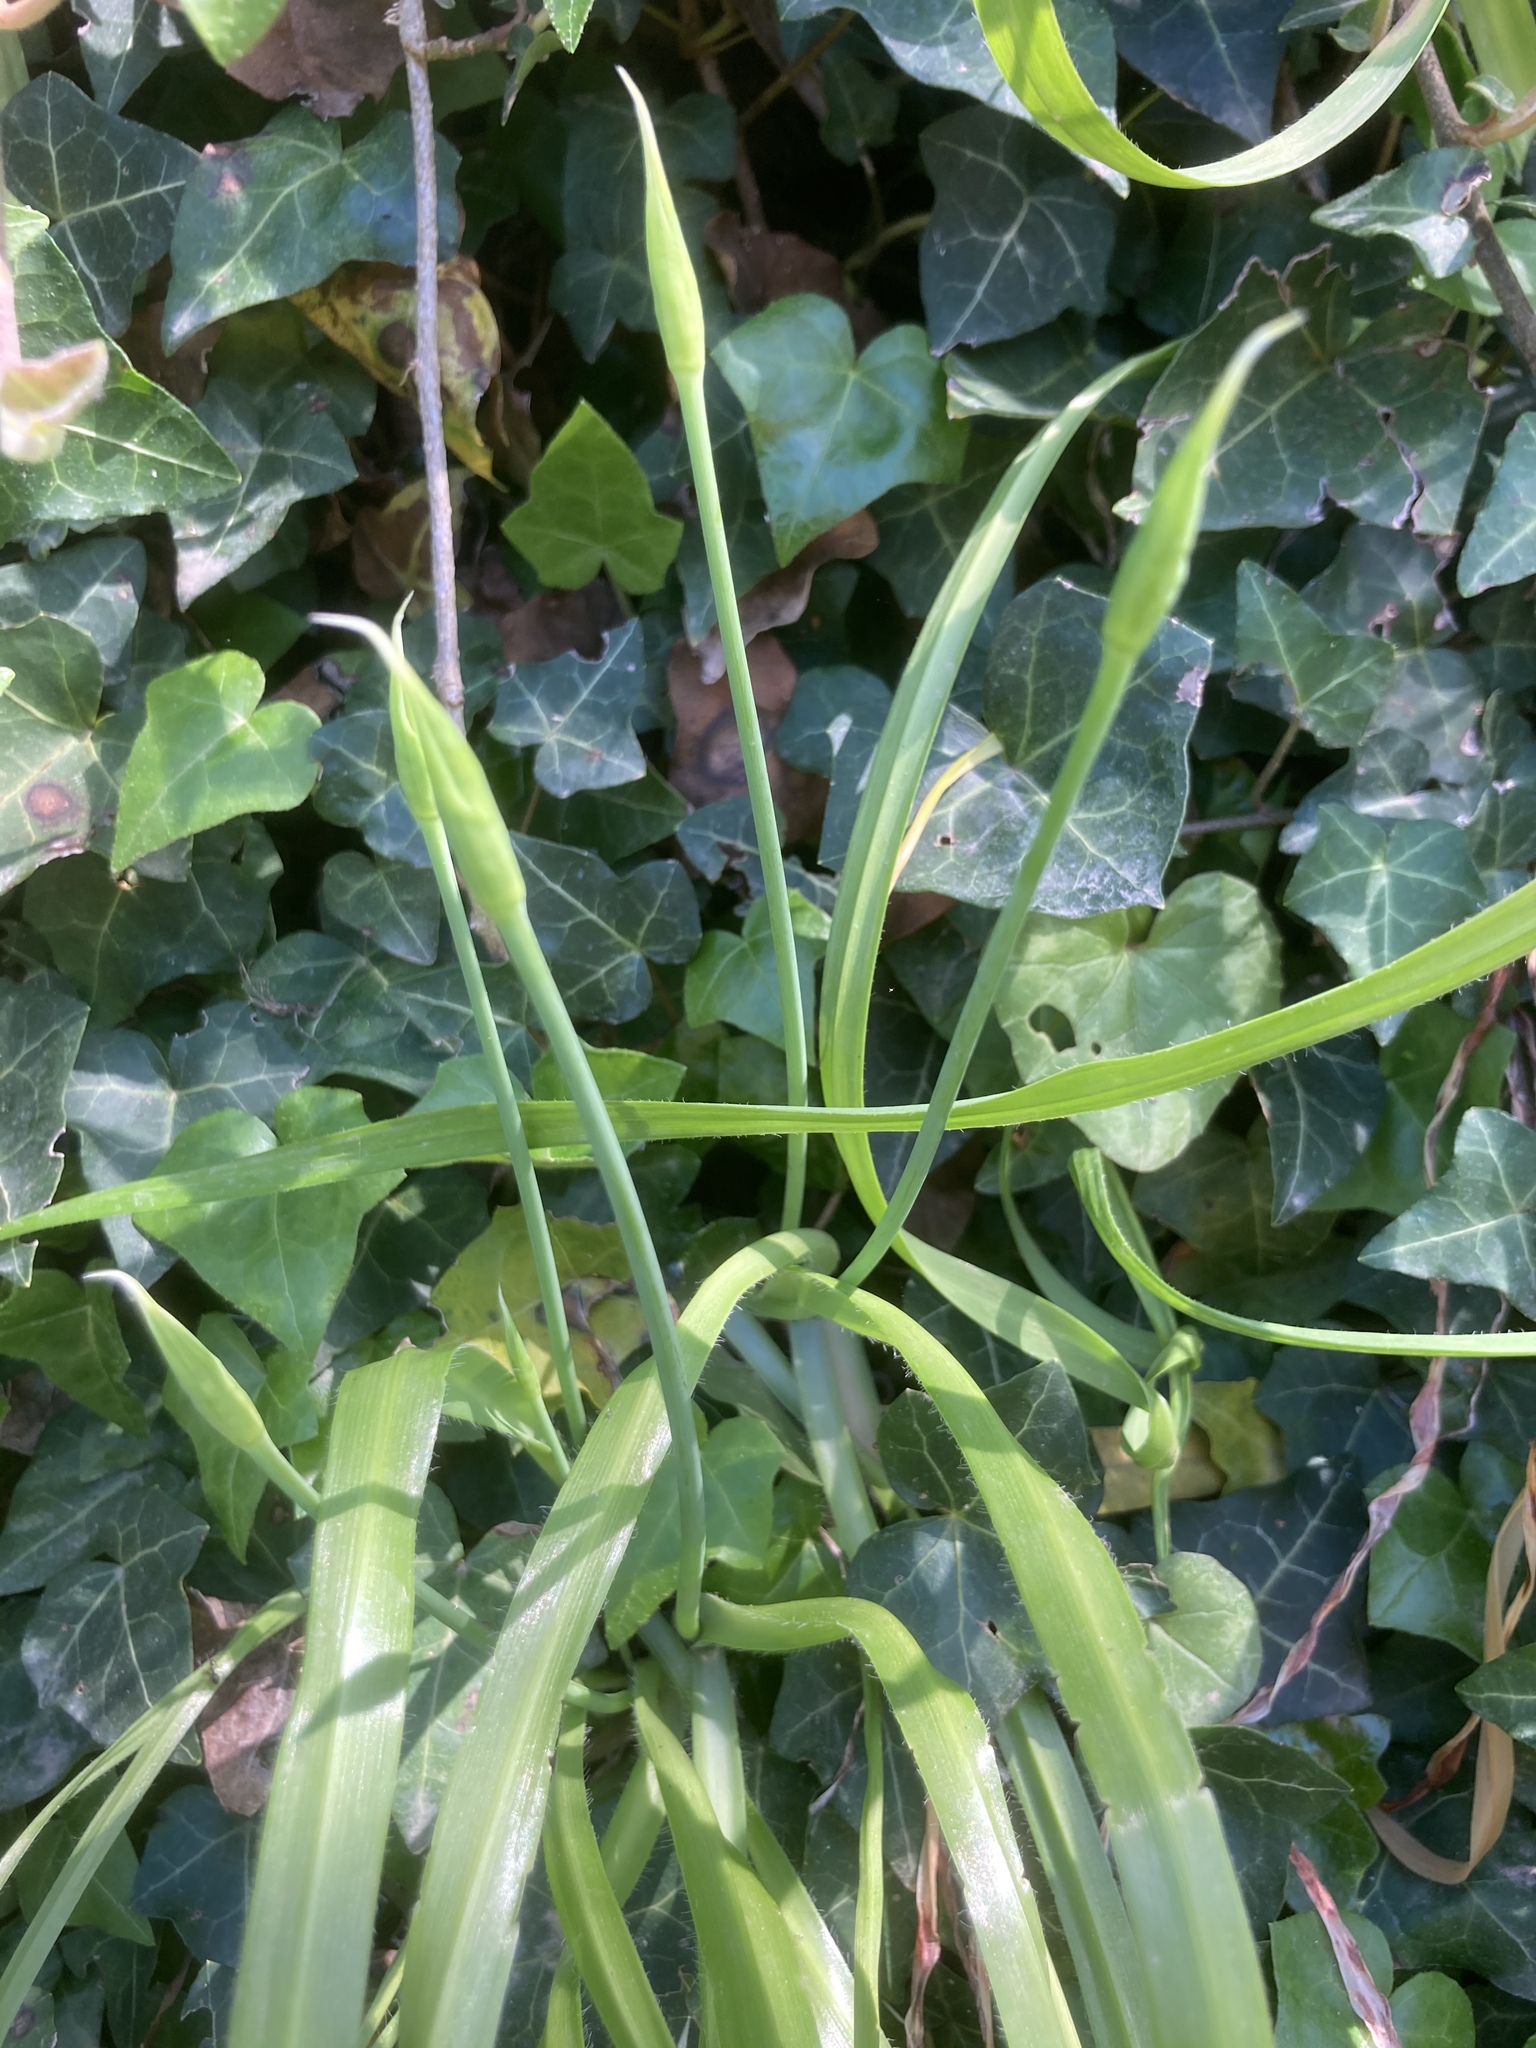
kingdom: Plantae
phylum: Tracheophyta
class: Magnoliopsida
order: Apiales
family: Araliaceae
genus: Hedera
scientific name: Hedera helix
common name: Ivy
